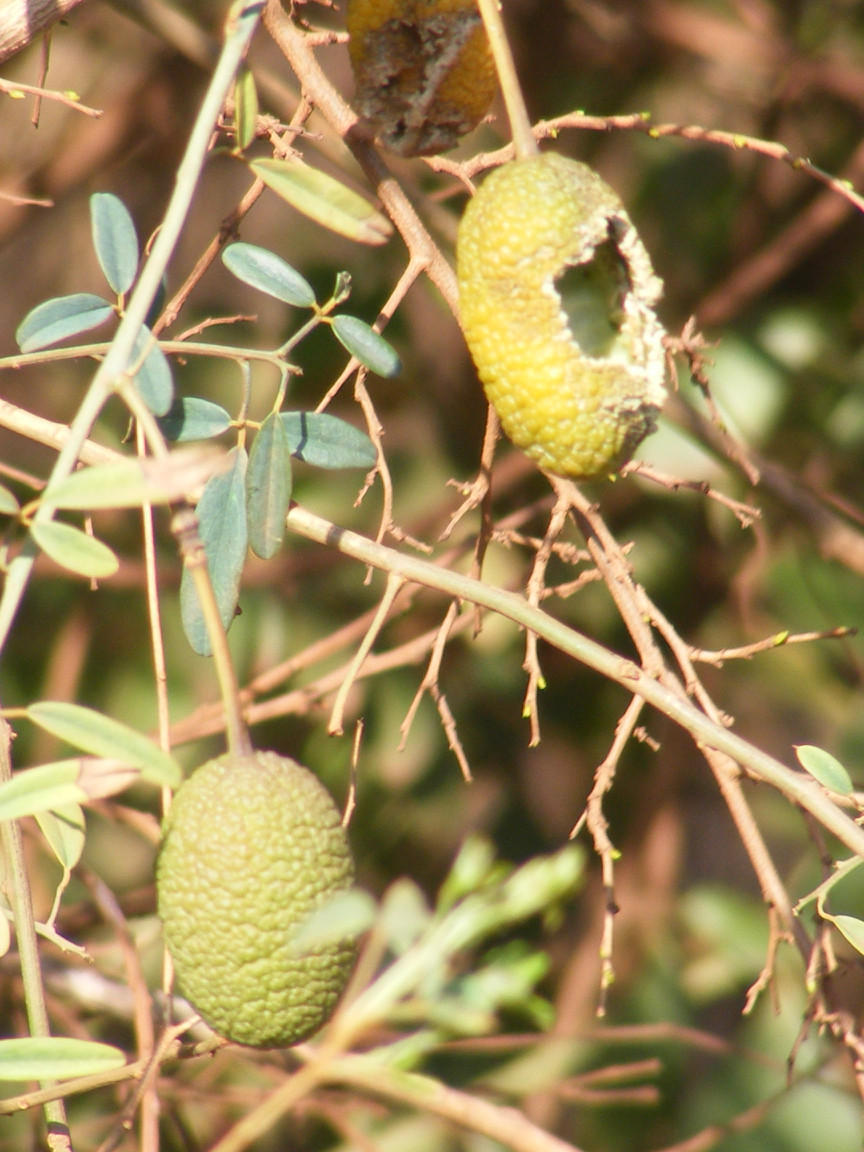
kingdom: Plantae
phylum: Tracheophyta
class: Magnoliopsida
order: Brassicales
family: Capparaceae
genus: Maerua
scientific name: Maerua juncea
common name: Rough-skinned bush cherry
